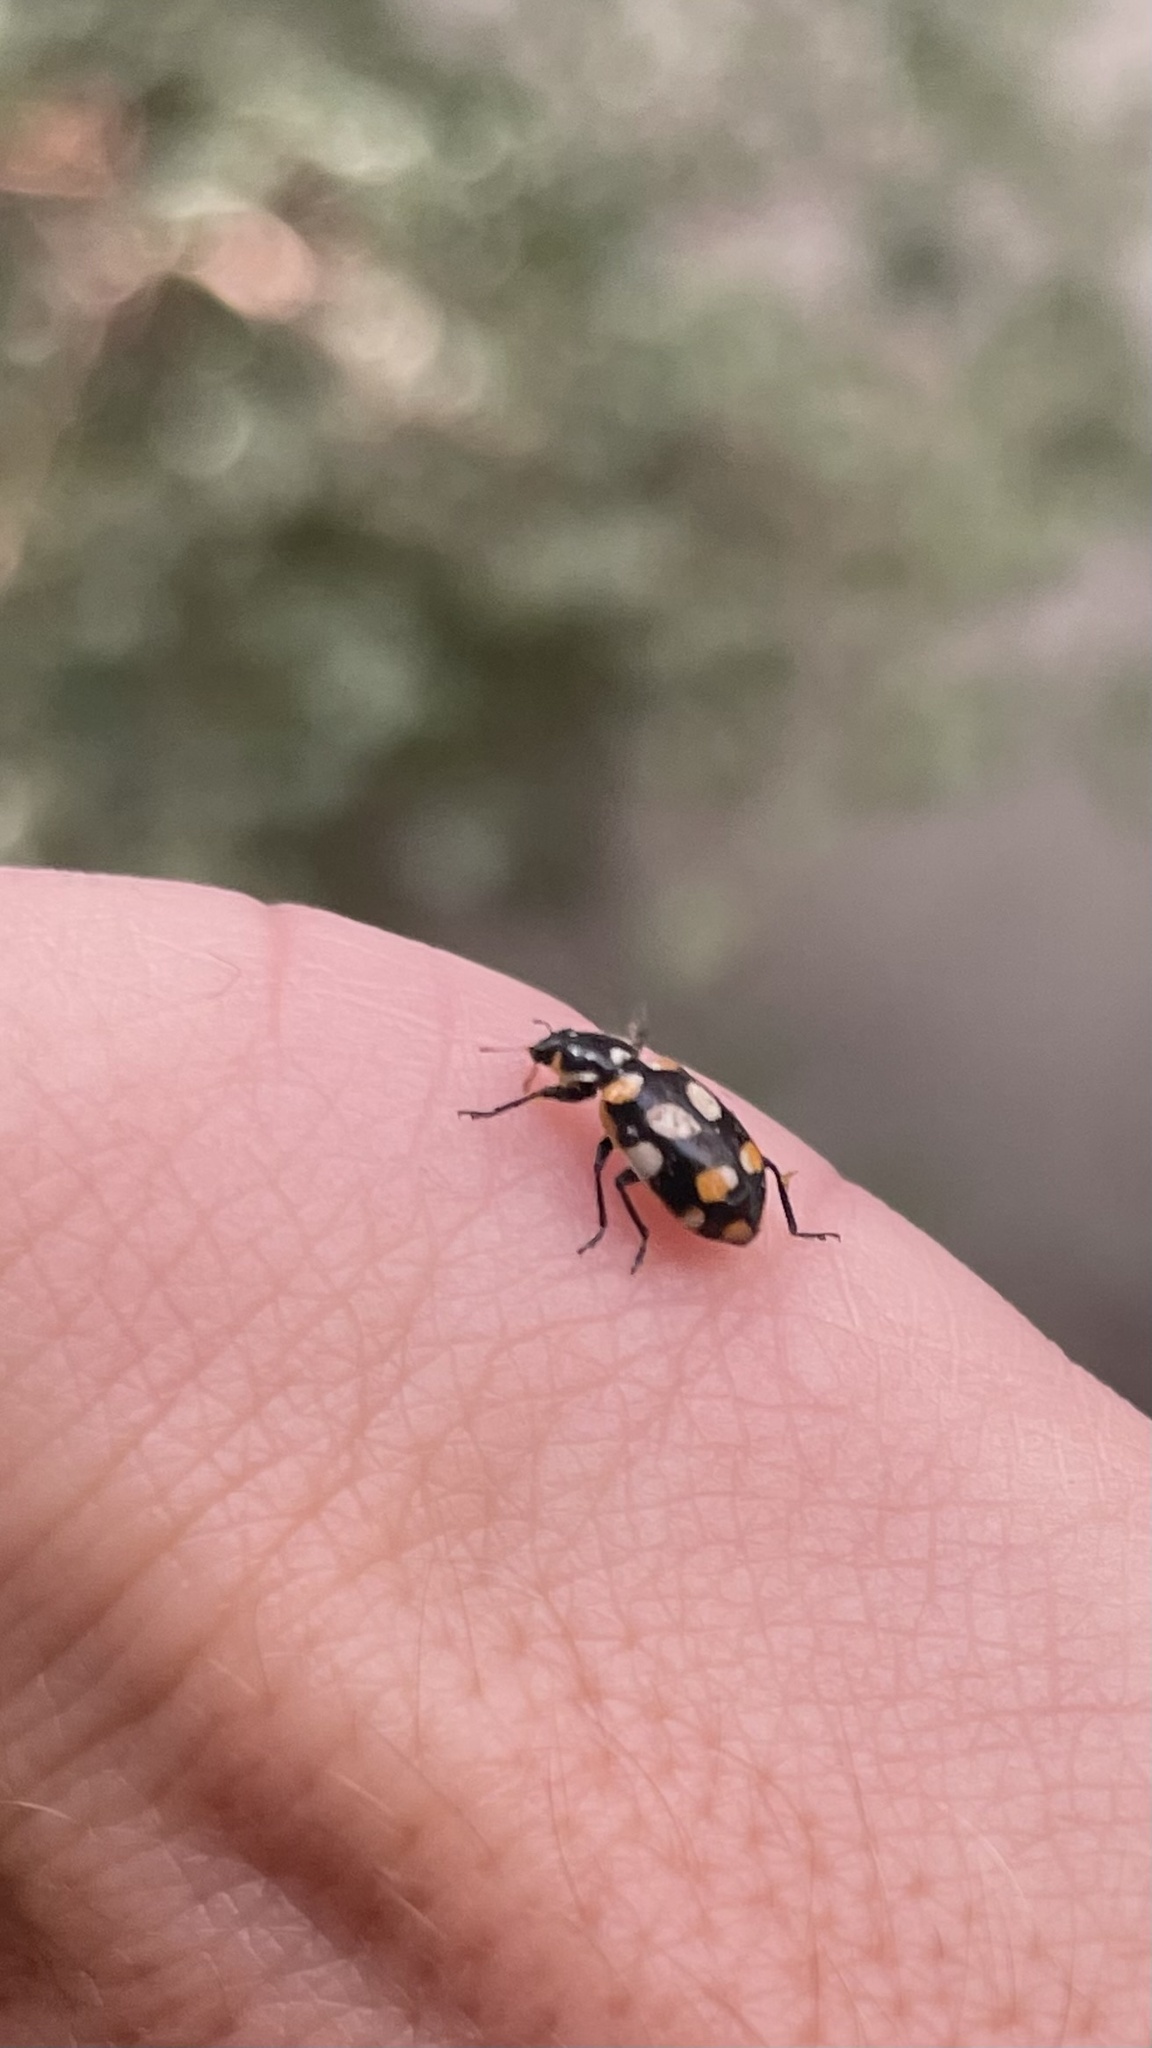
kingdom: Animalia
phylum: Arthropoda
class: Insecta
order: Coleoptera
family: Coccinellidae
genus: Eriopis
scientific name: Eriopis connexa
